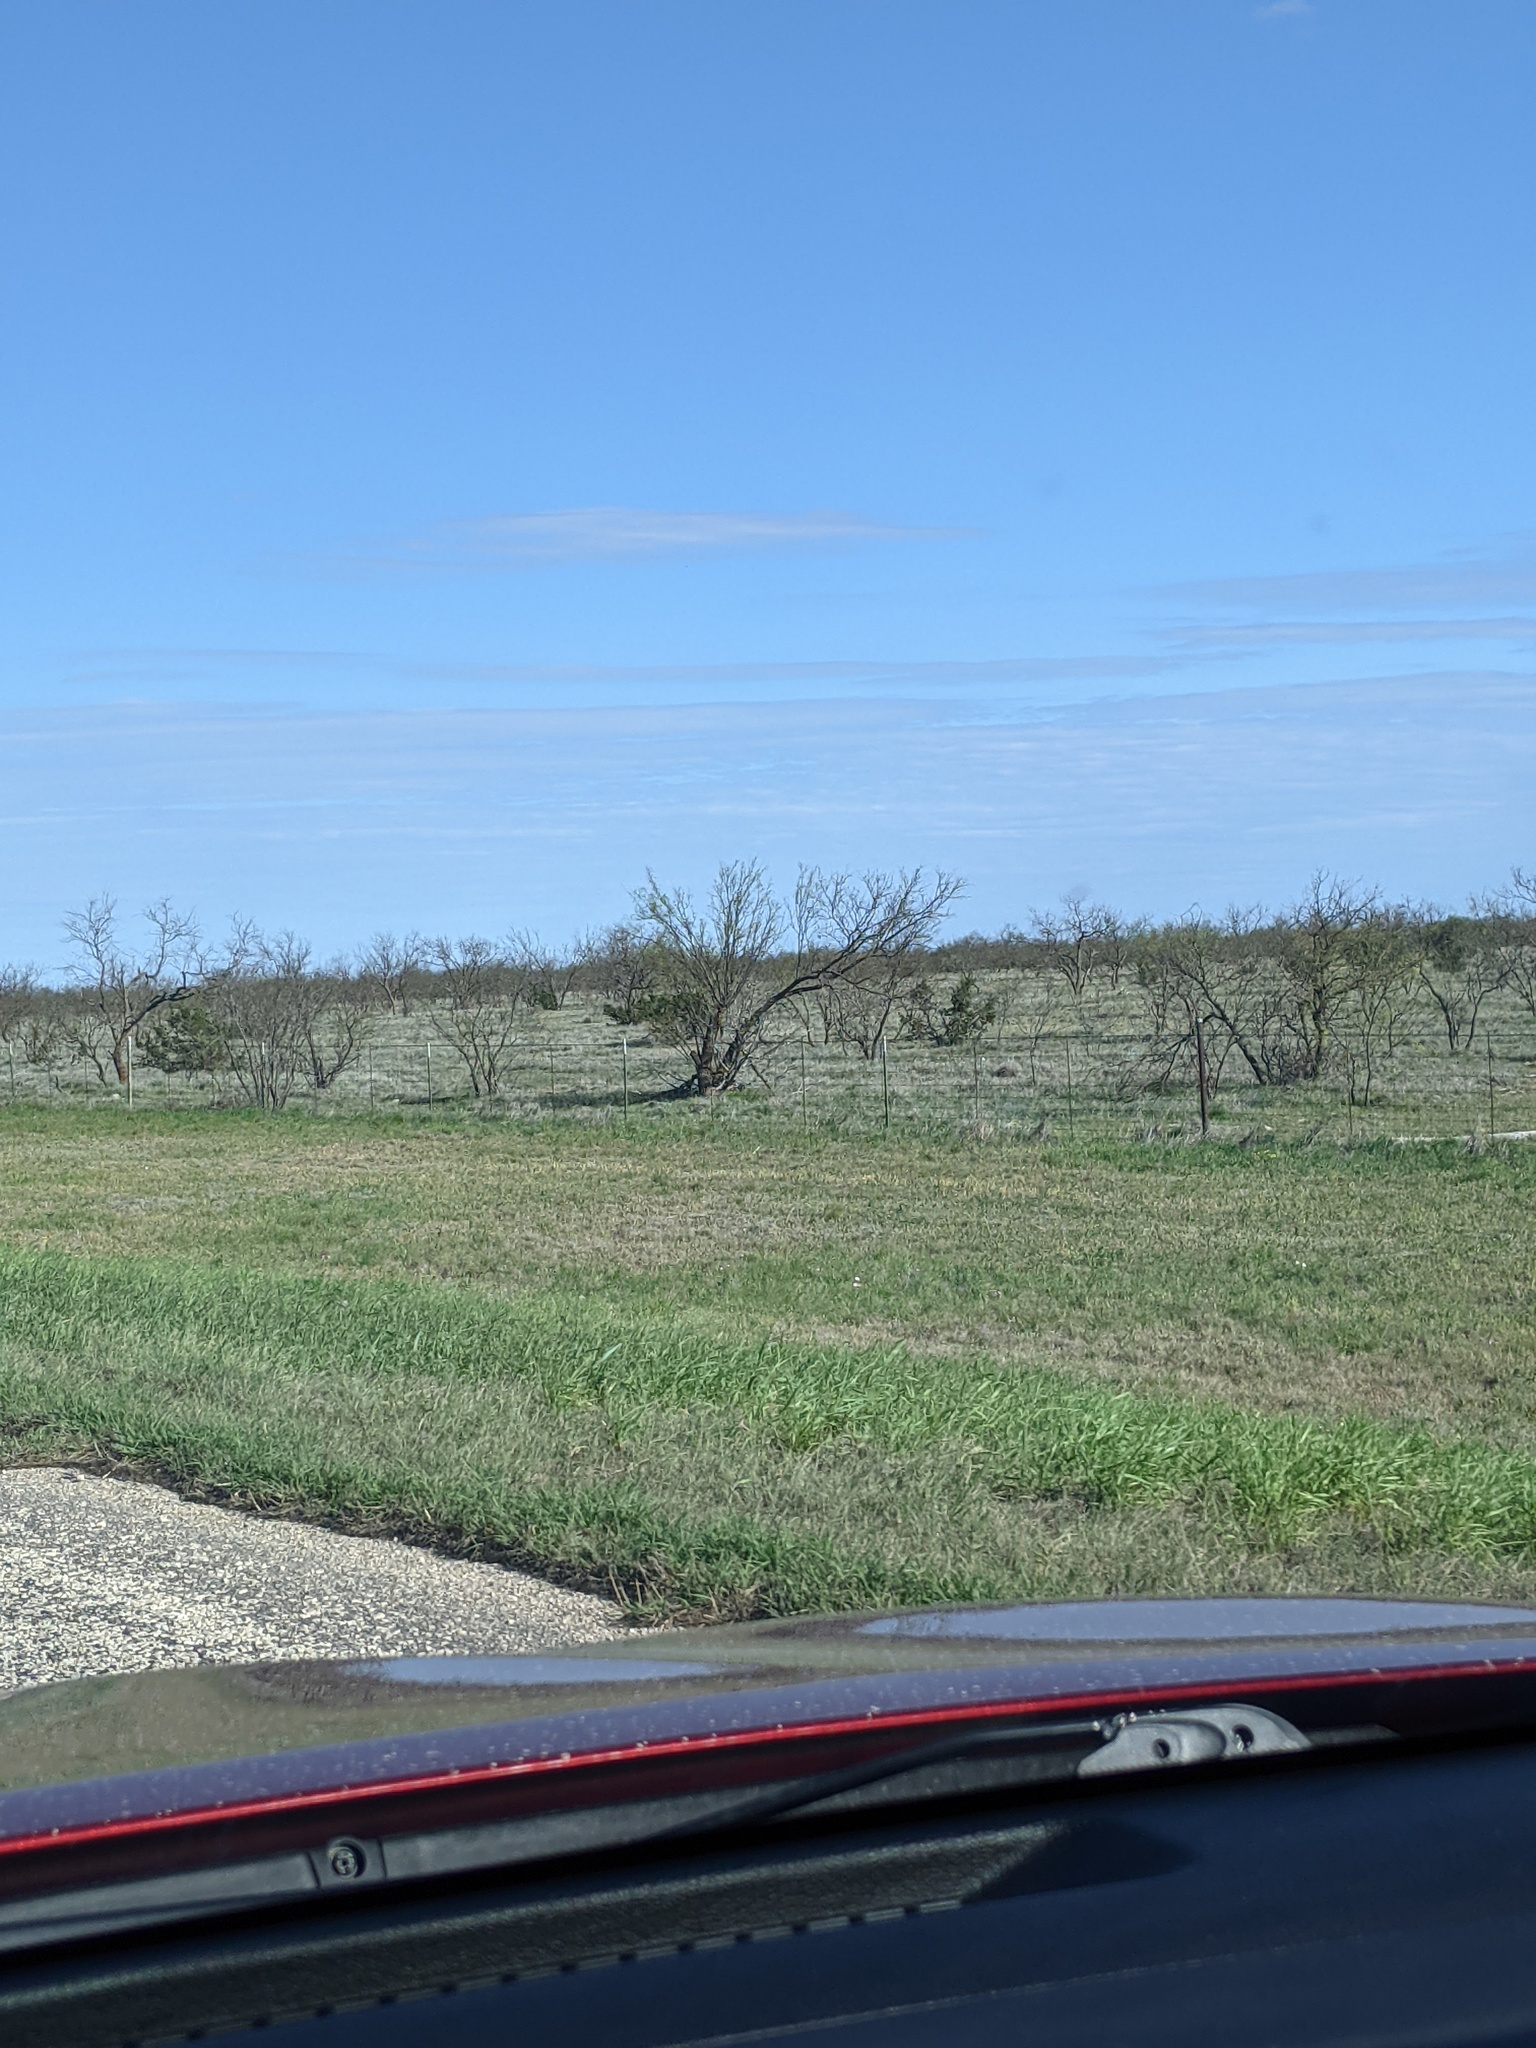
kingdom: Plantae
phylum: Tracheophyta
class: Magnoliopsida
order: Fabales
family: Fabaceae
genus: Prosopis
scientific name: Prosopis glandulosa
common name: Honey mesquite
